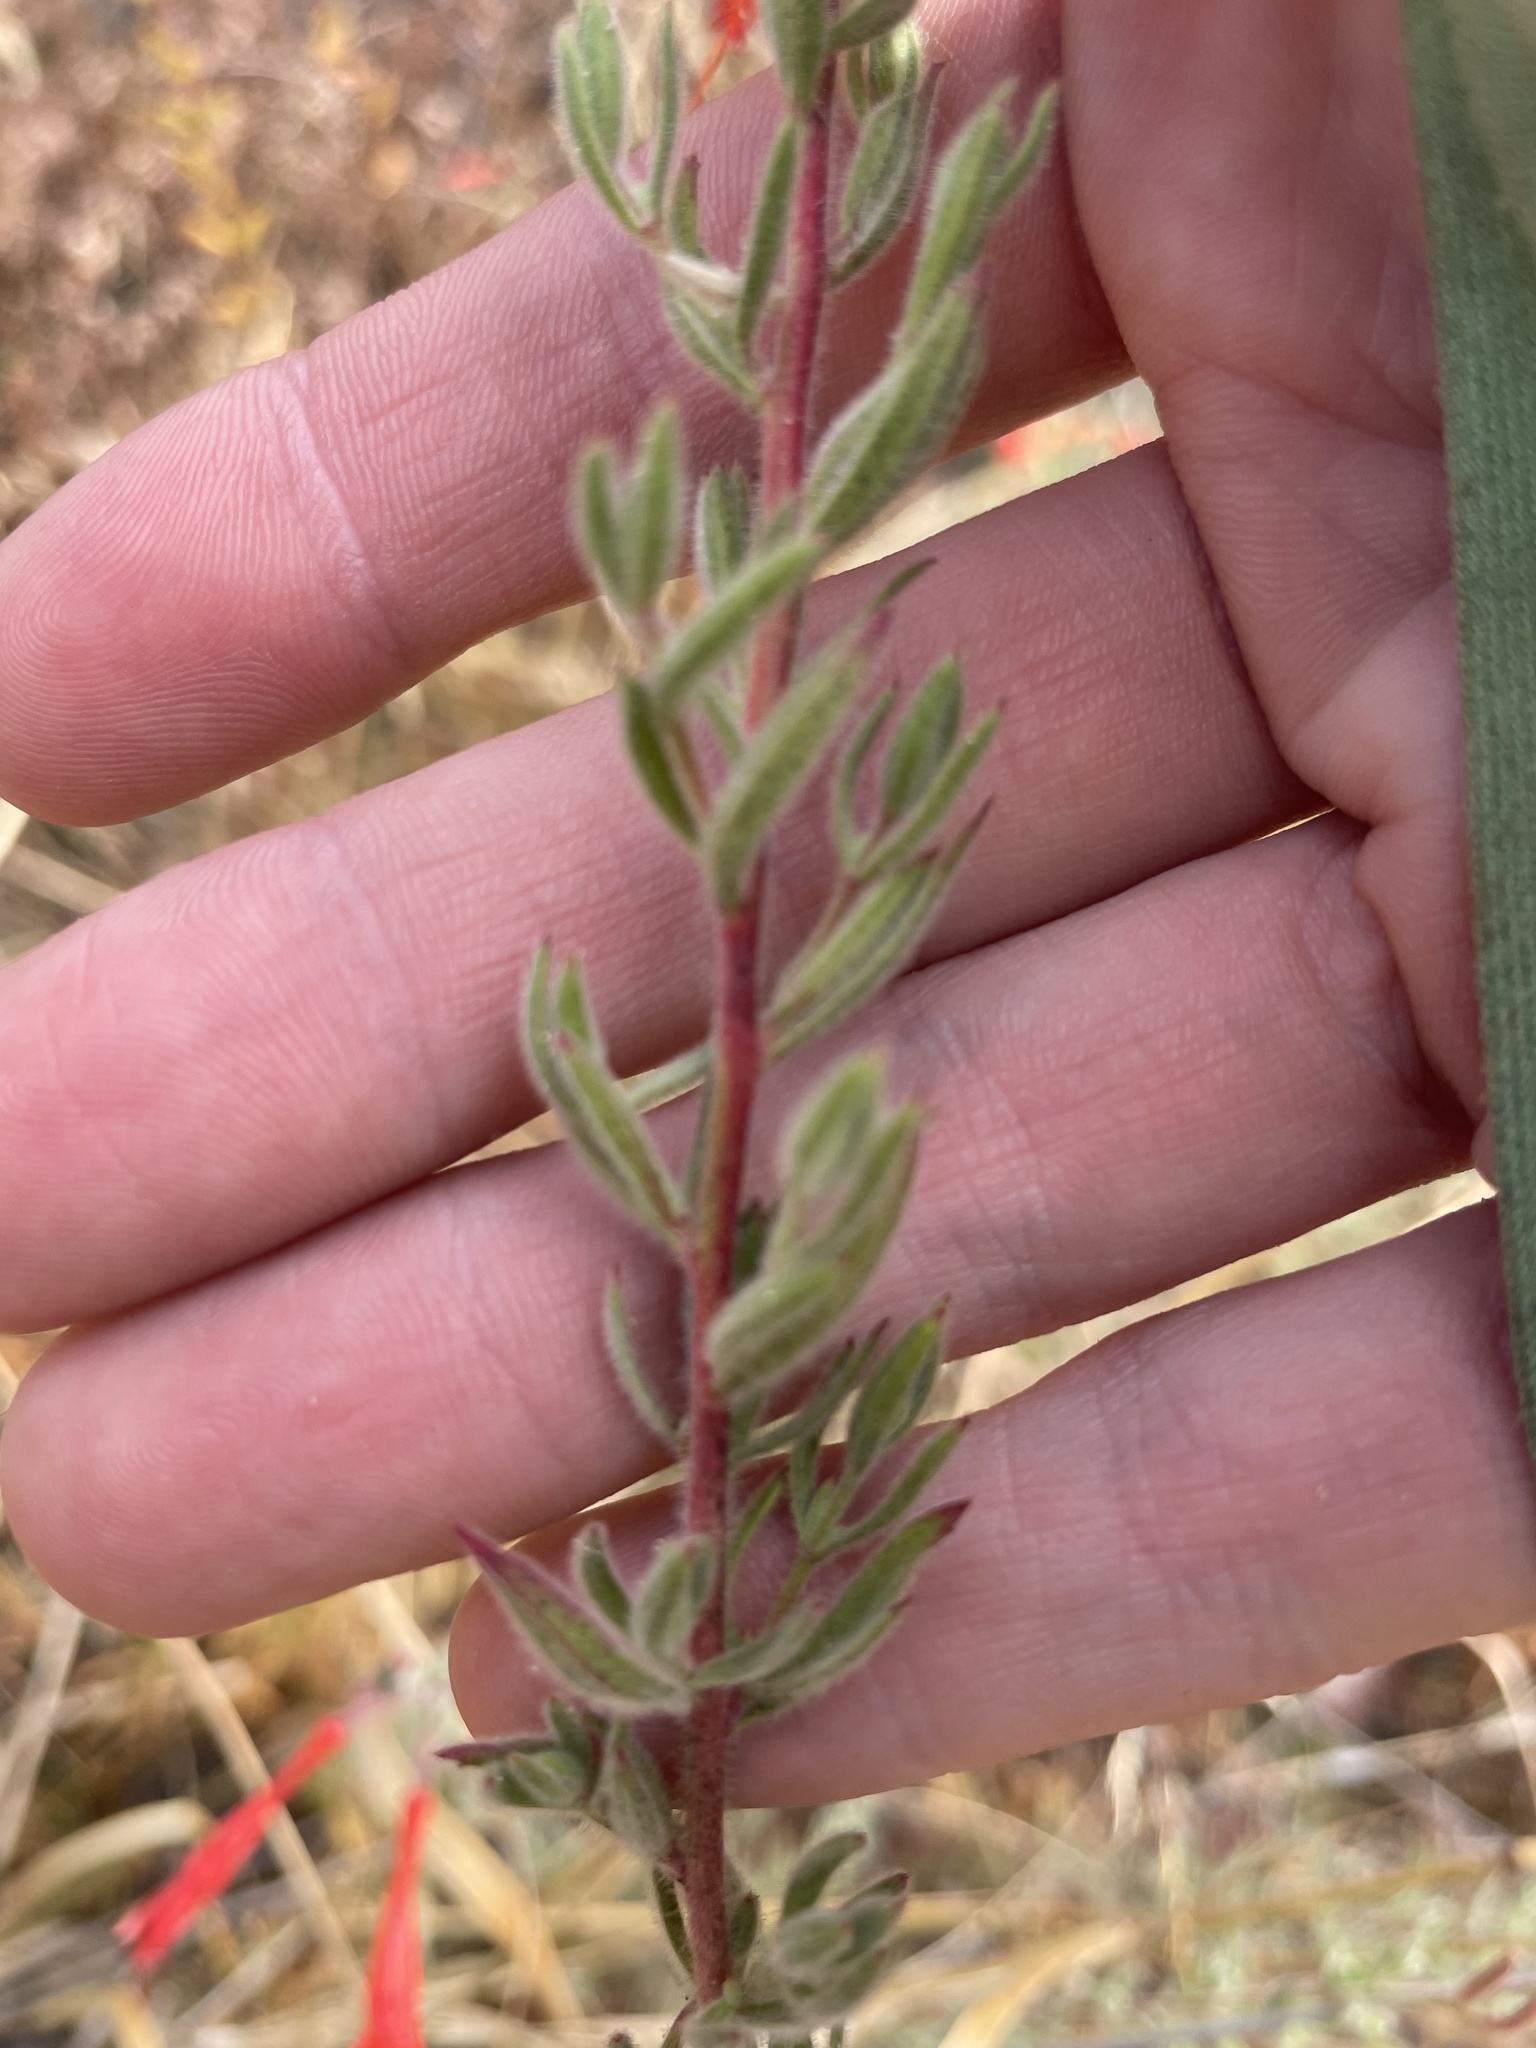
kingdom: Plantae
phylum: Tracheophyta
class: Magnoliopsida
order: Myrtales
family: Onagraceae
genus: Epilobium
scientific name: Epilobium canum
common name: California-fuchsia
